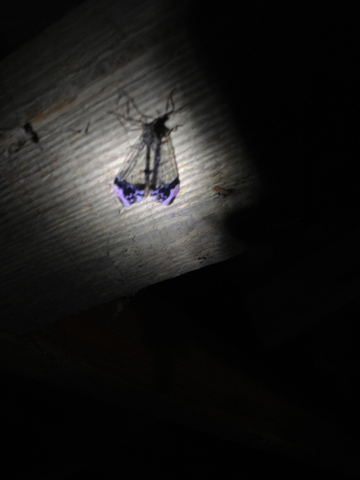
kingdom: Animalia
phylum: Arthropoda
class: Insecta
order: Neuroptera
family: Myrmeleontidae
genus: Glenurus
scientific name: Glenurus gratus
